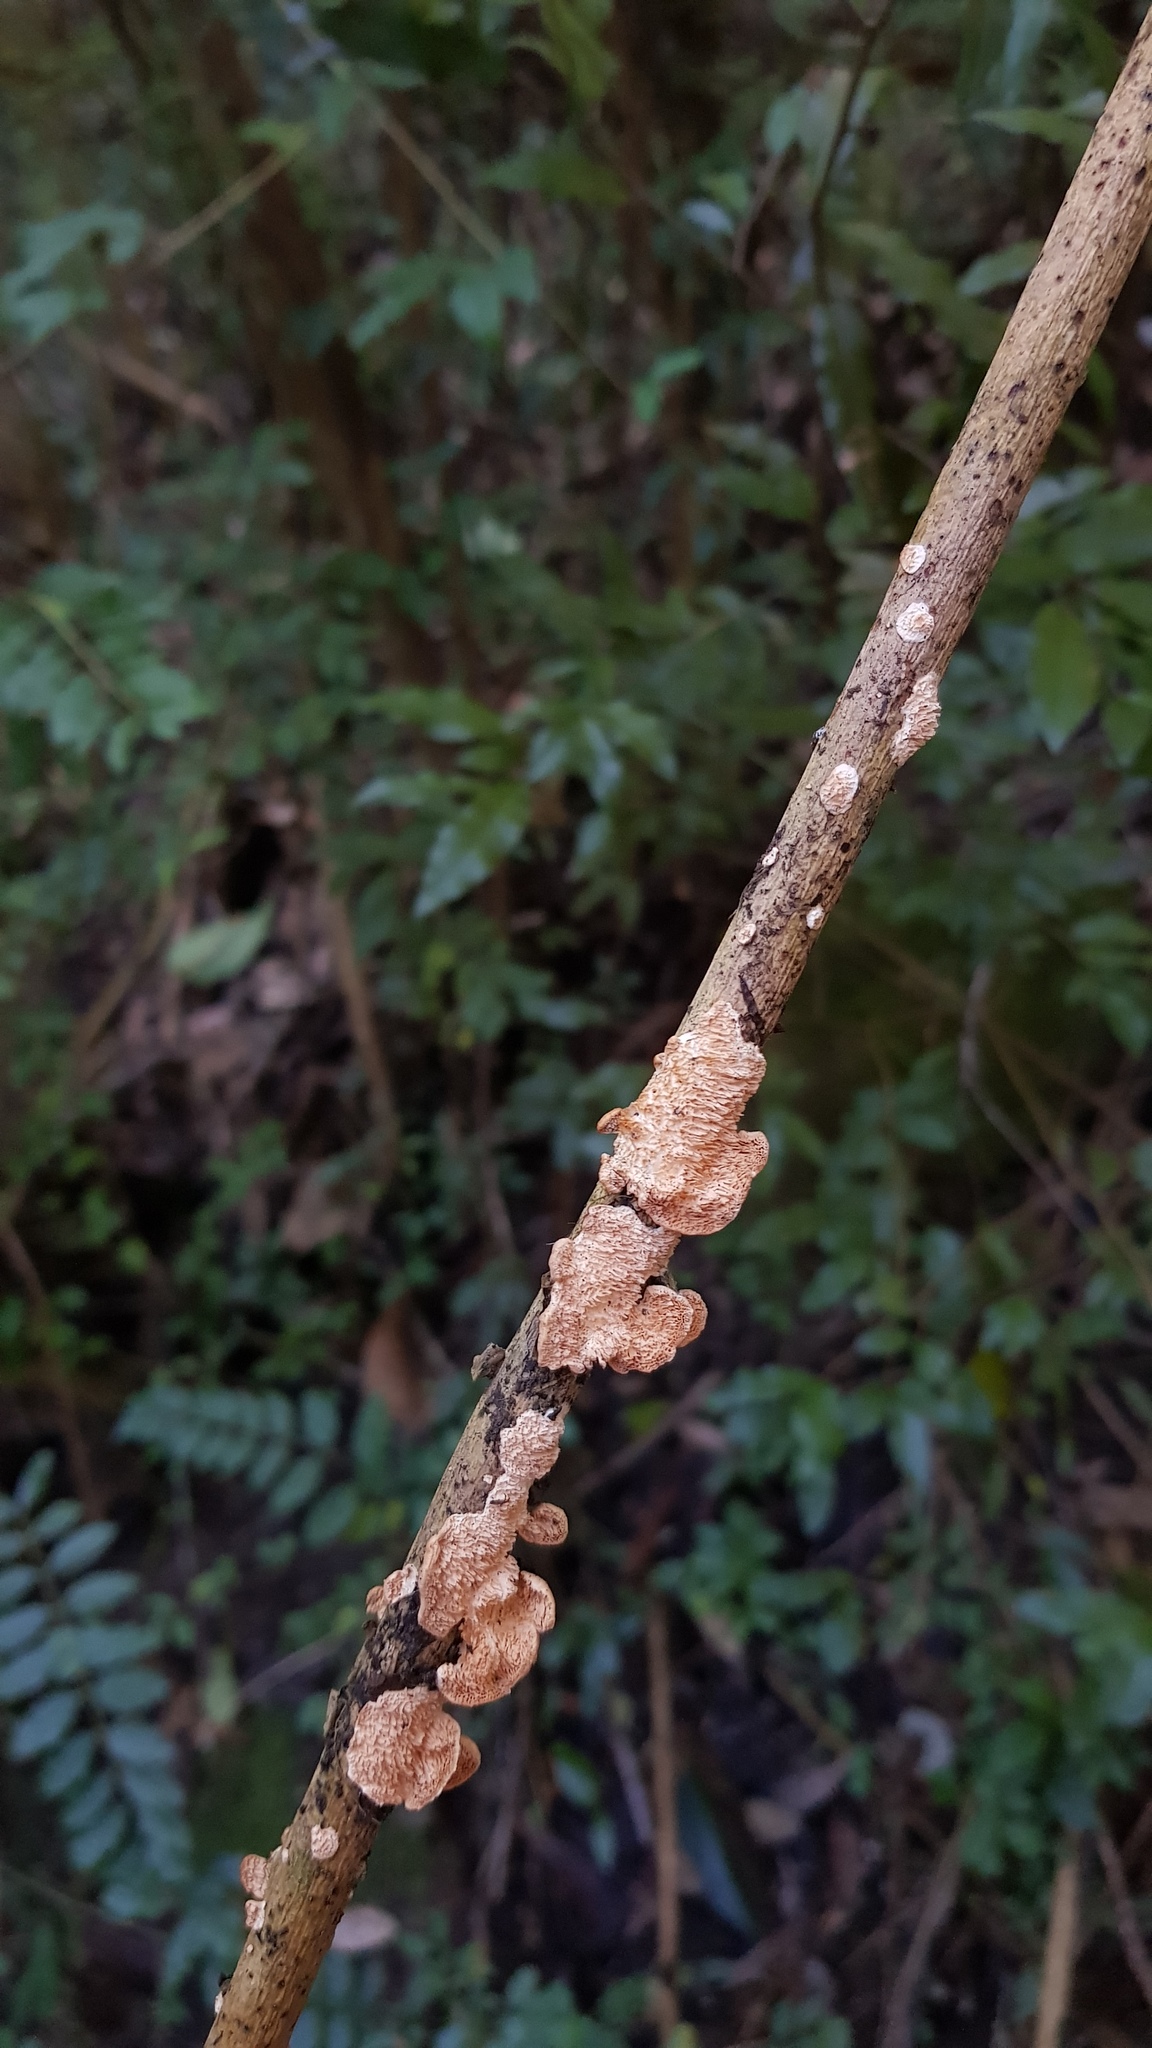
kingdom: Fungi
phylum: Basidiomycota
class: Agaricomycetes
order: Polyporales
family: Cerrenaceae
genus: Cerrena
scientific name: Cerrena zonata
